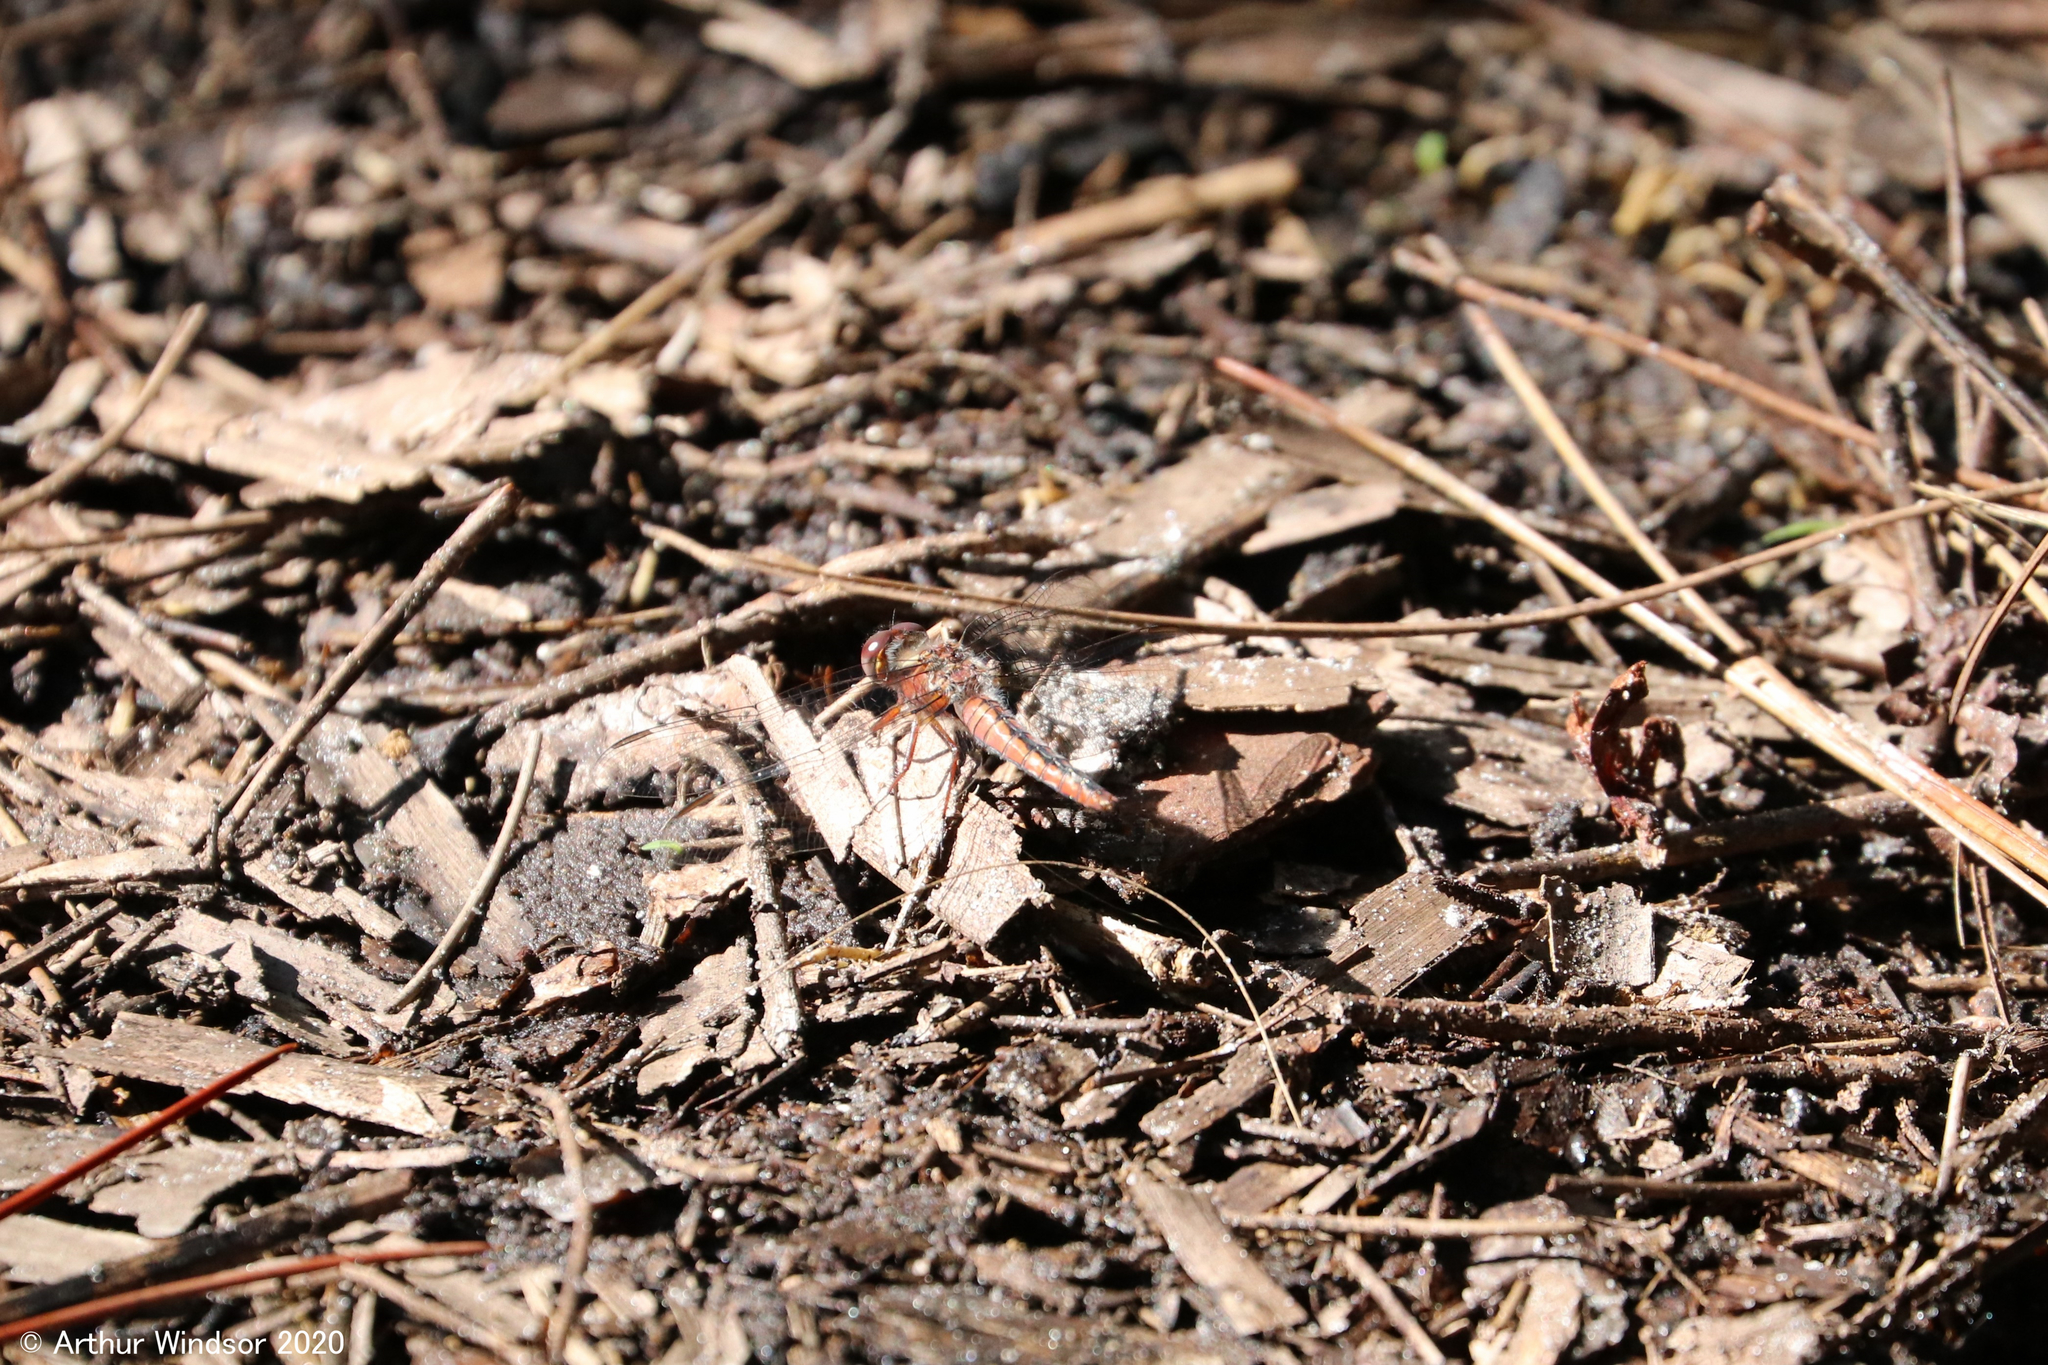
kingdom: Animalia
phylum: Arthropoda
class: Insecta
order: Odonata
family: Libellulidae
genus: Ladona
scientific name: Ladona deplanata
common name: Blue corporal
